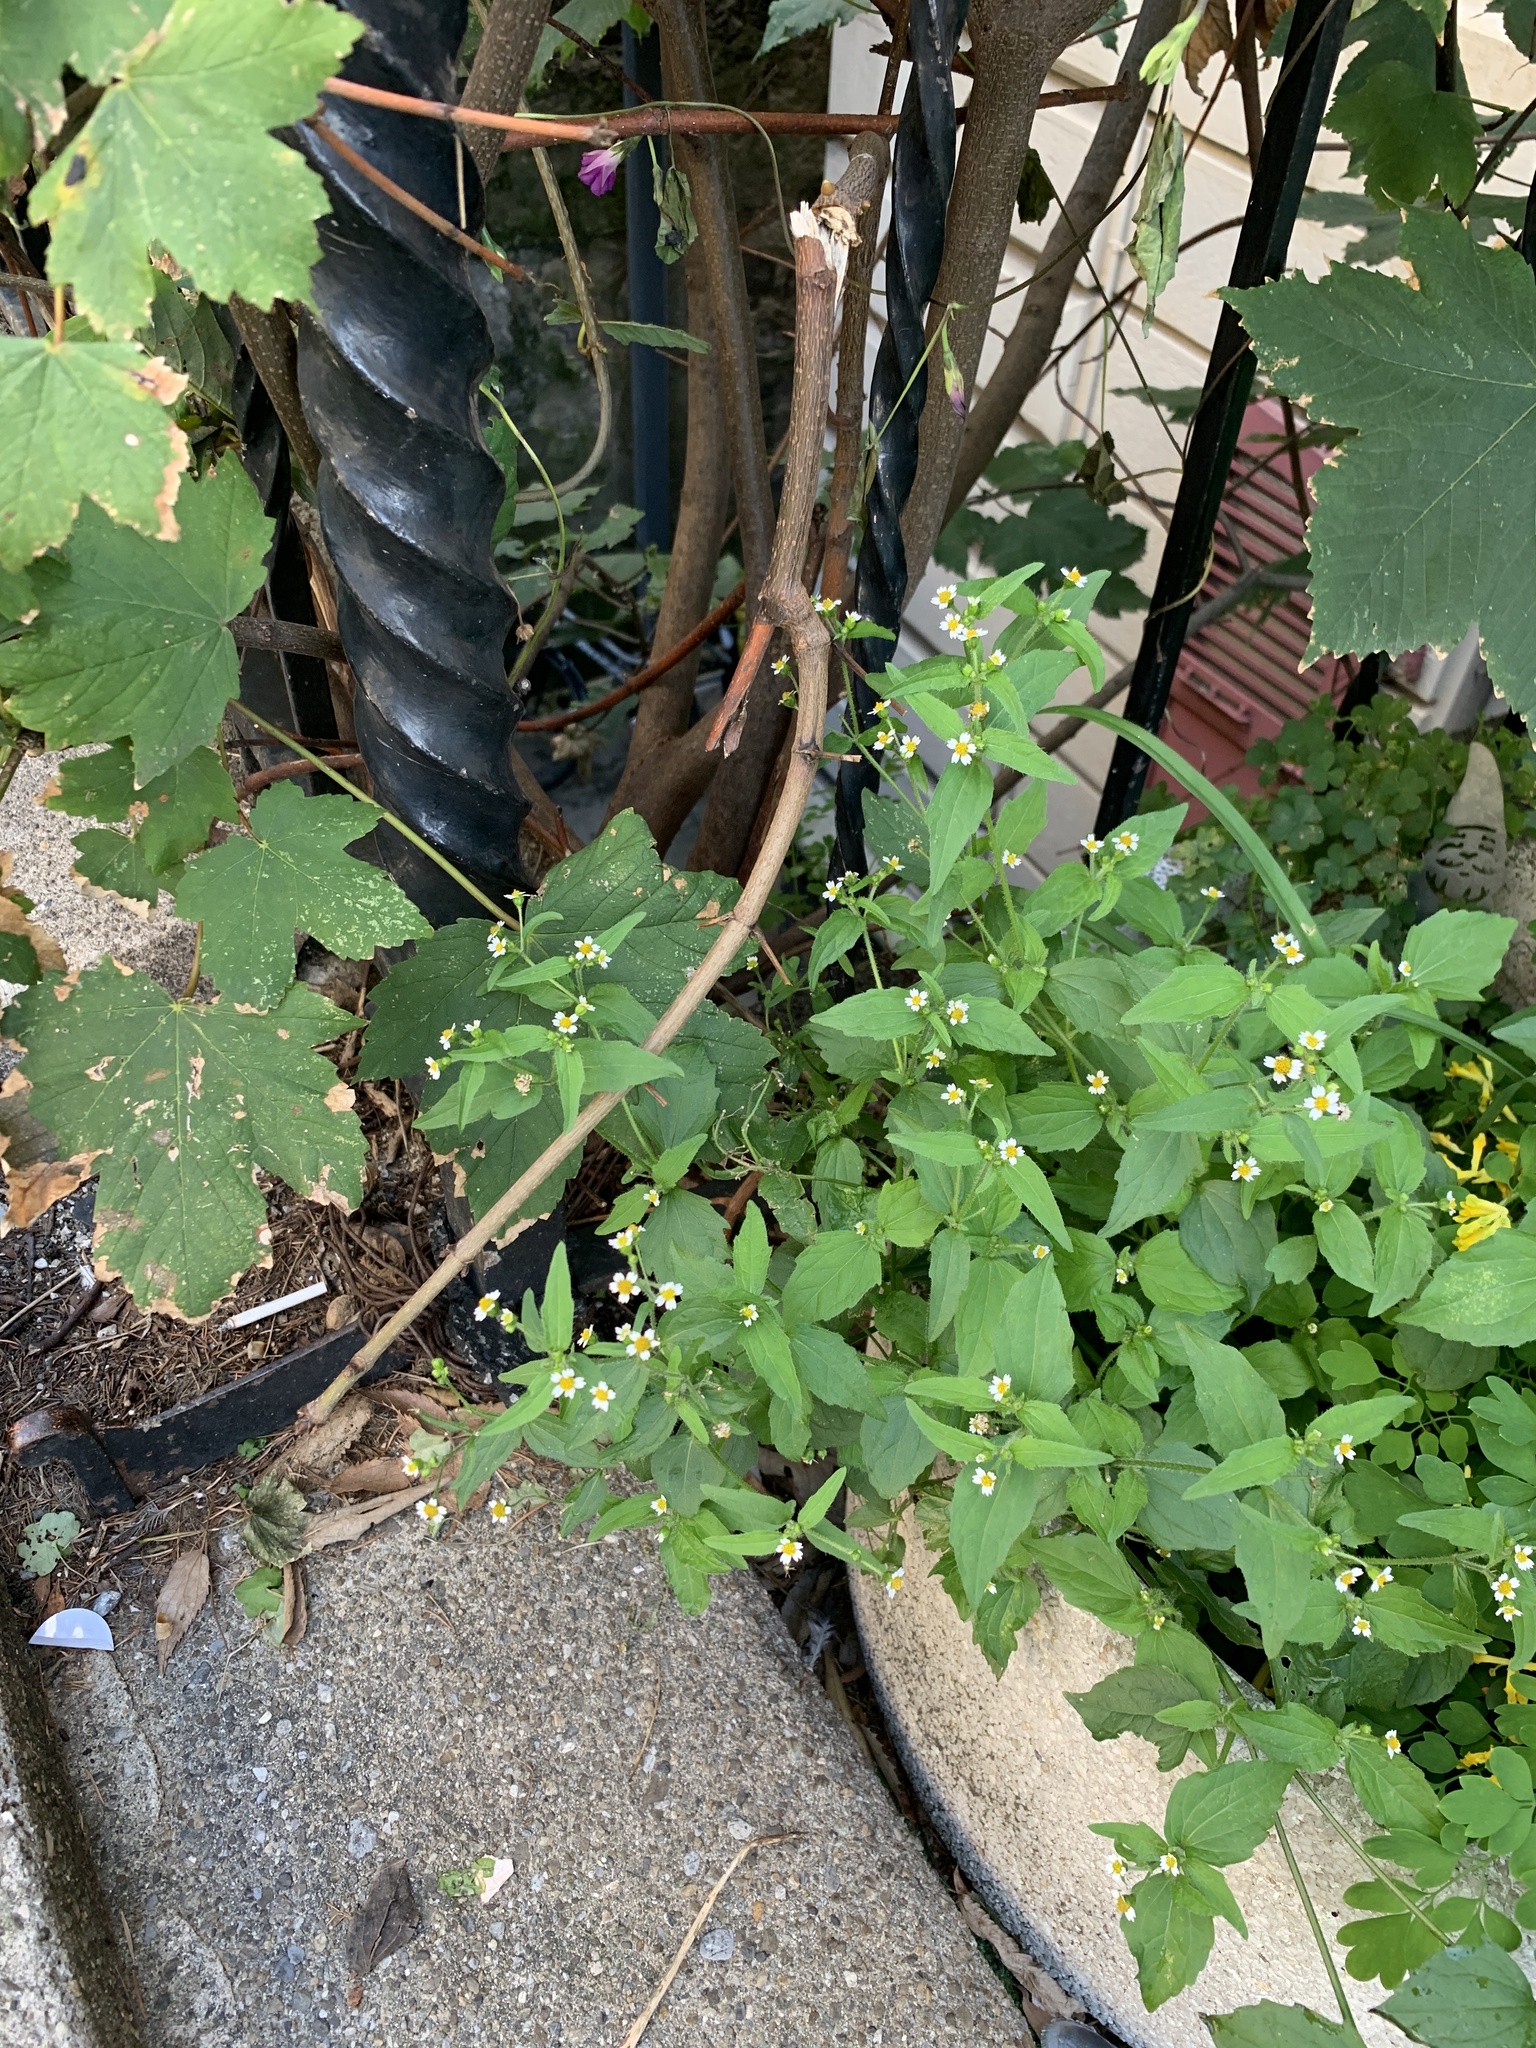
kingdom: Plantae
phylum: Tracheophyta
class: Magnoliopsida
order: Asterales
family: Asteraceae
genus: Galinsoga
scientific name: Galinsoga quadriradiata
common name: Shaggy soldier
